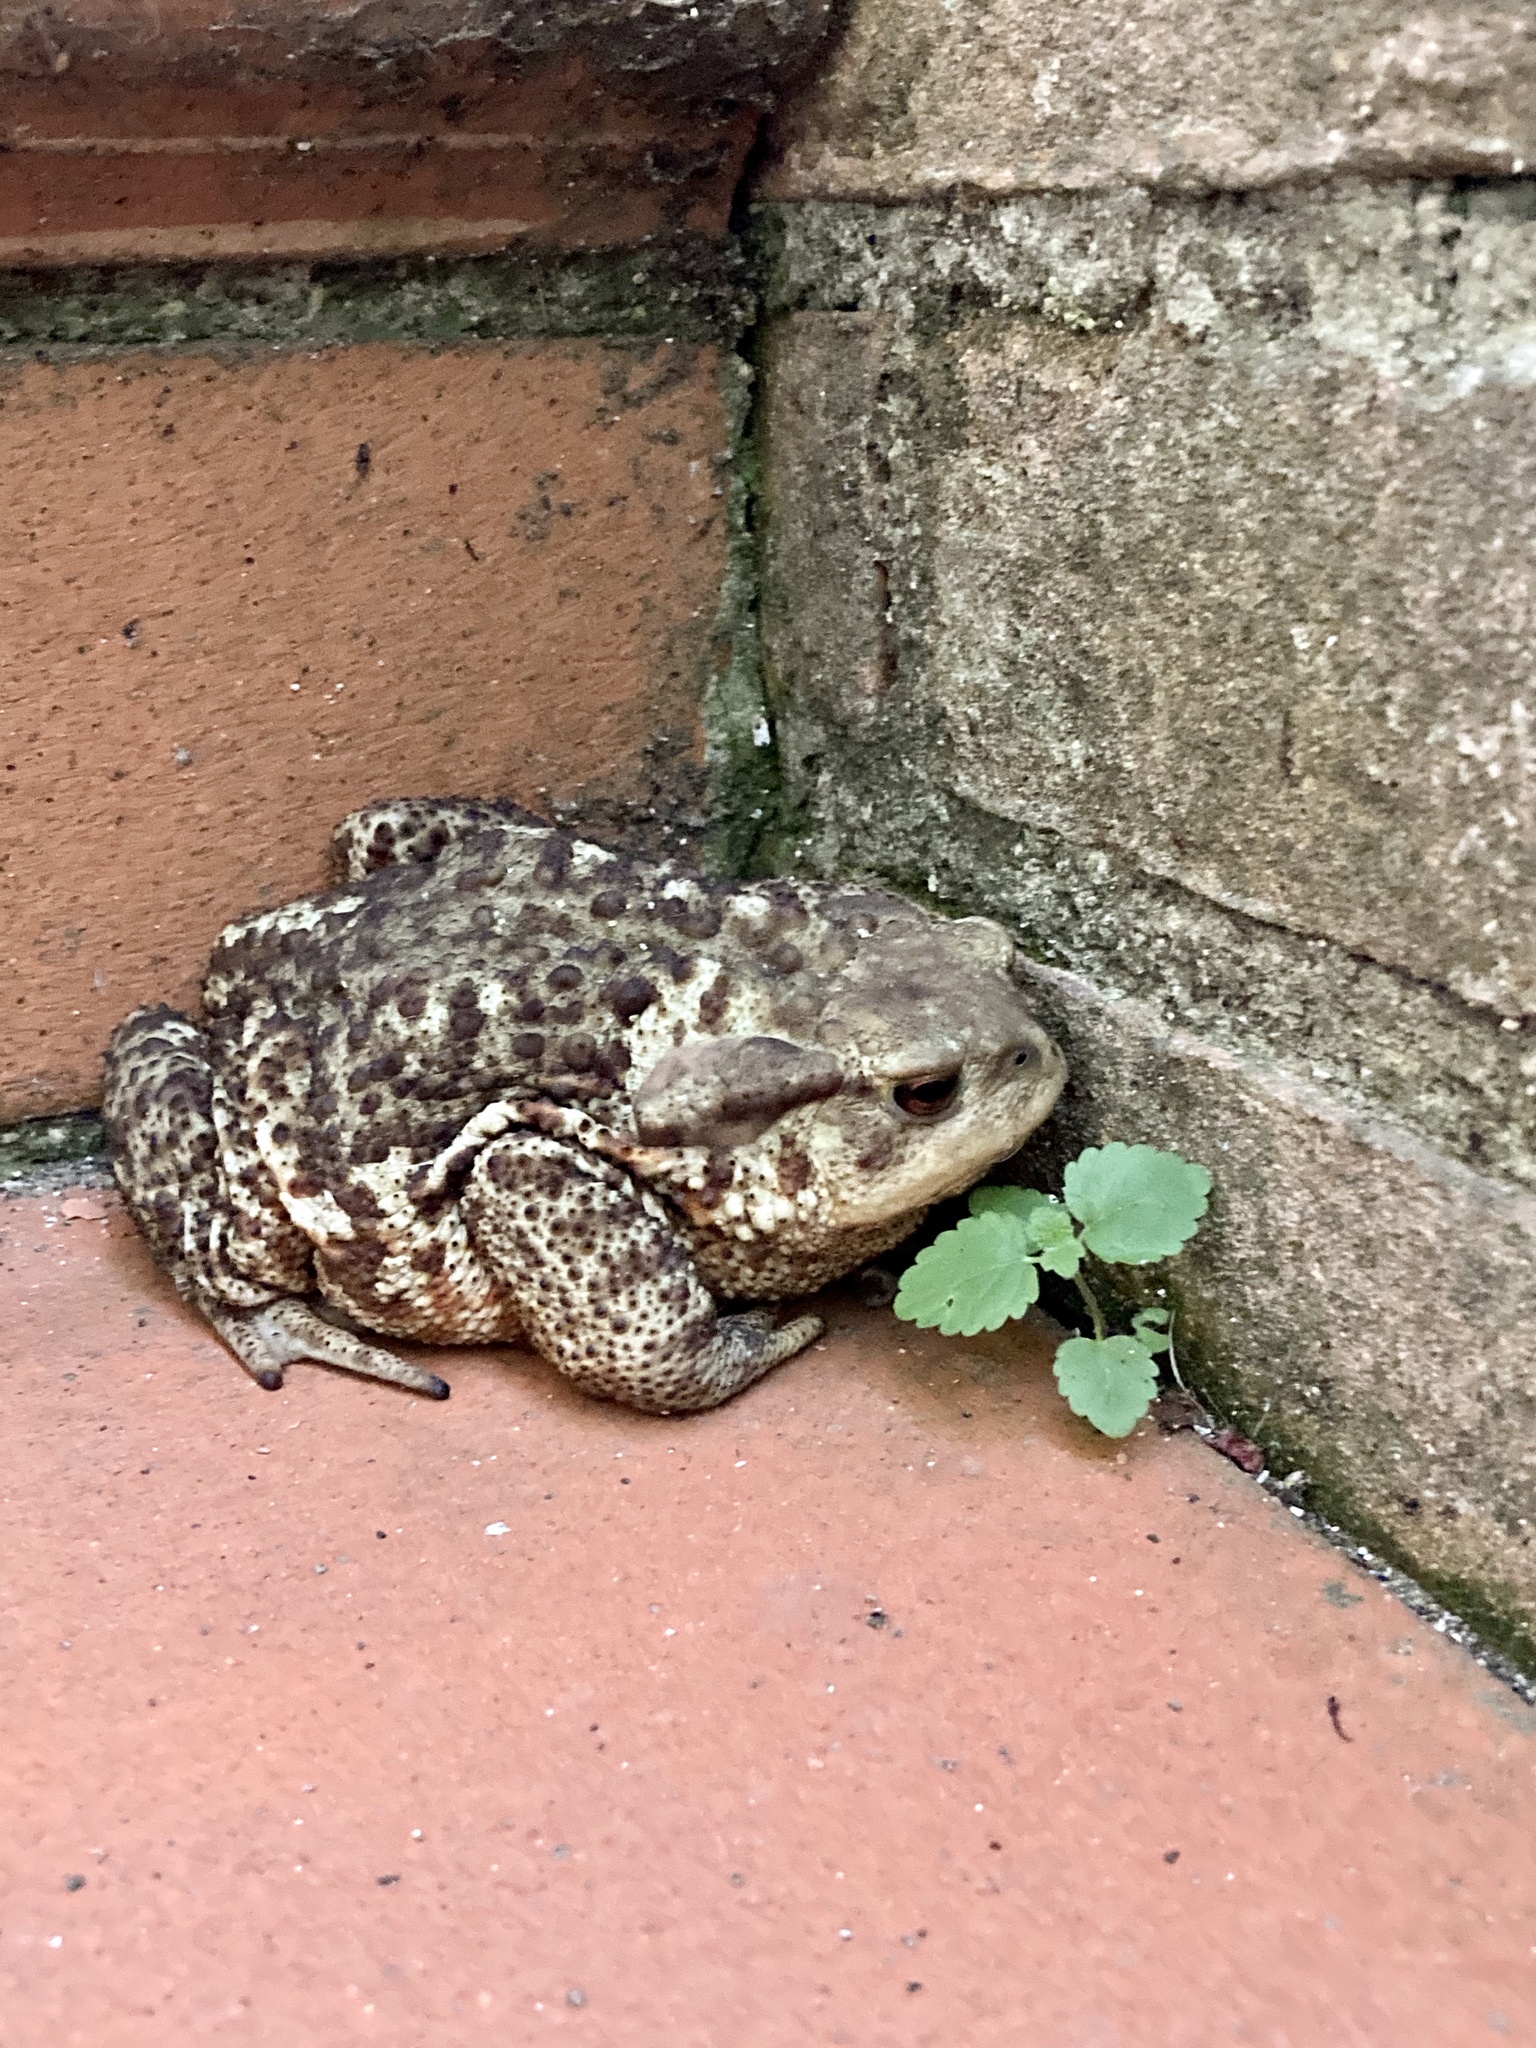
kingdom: Animalia
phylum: Chordata
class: Amphibia
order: Anura
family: Bufonidae
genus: Bufo
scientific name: Bufo bufo
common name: Common toad
